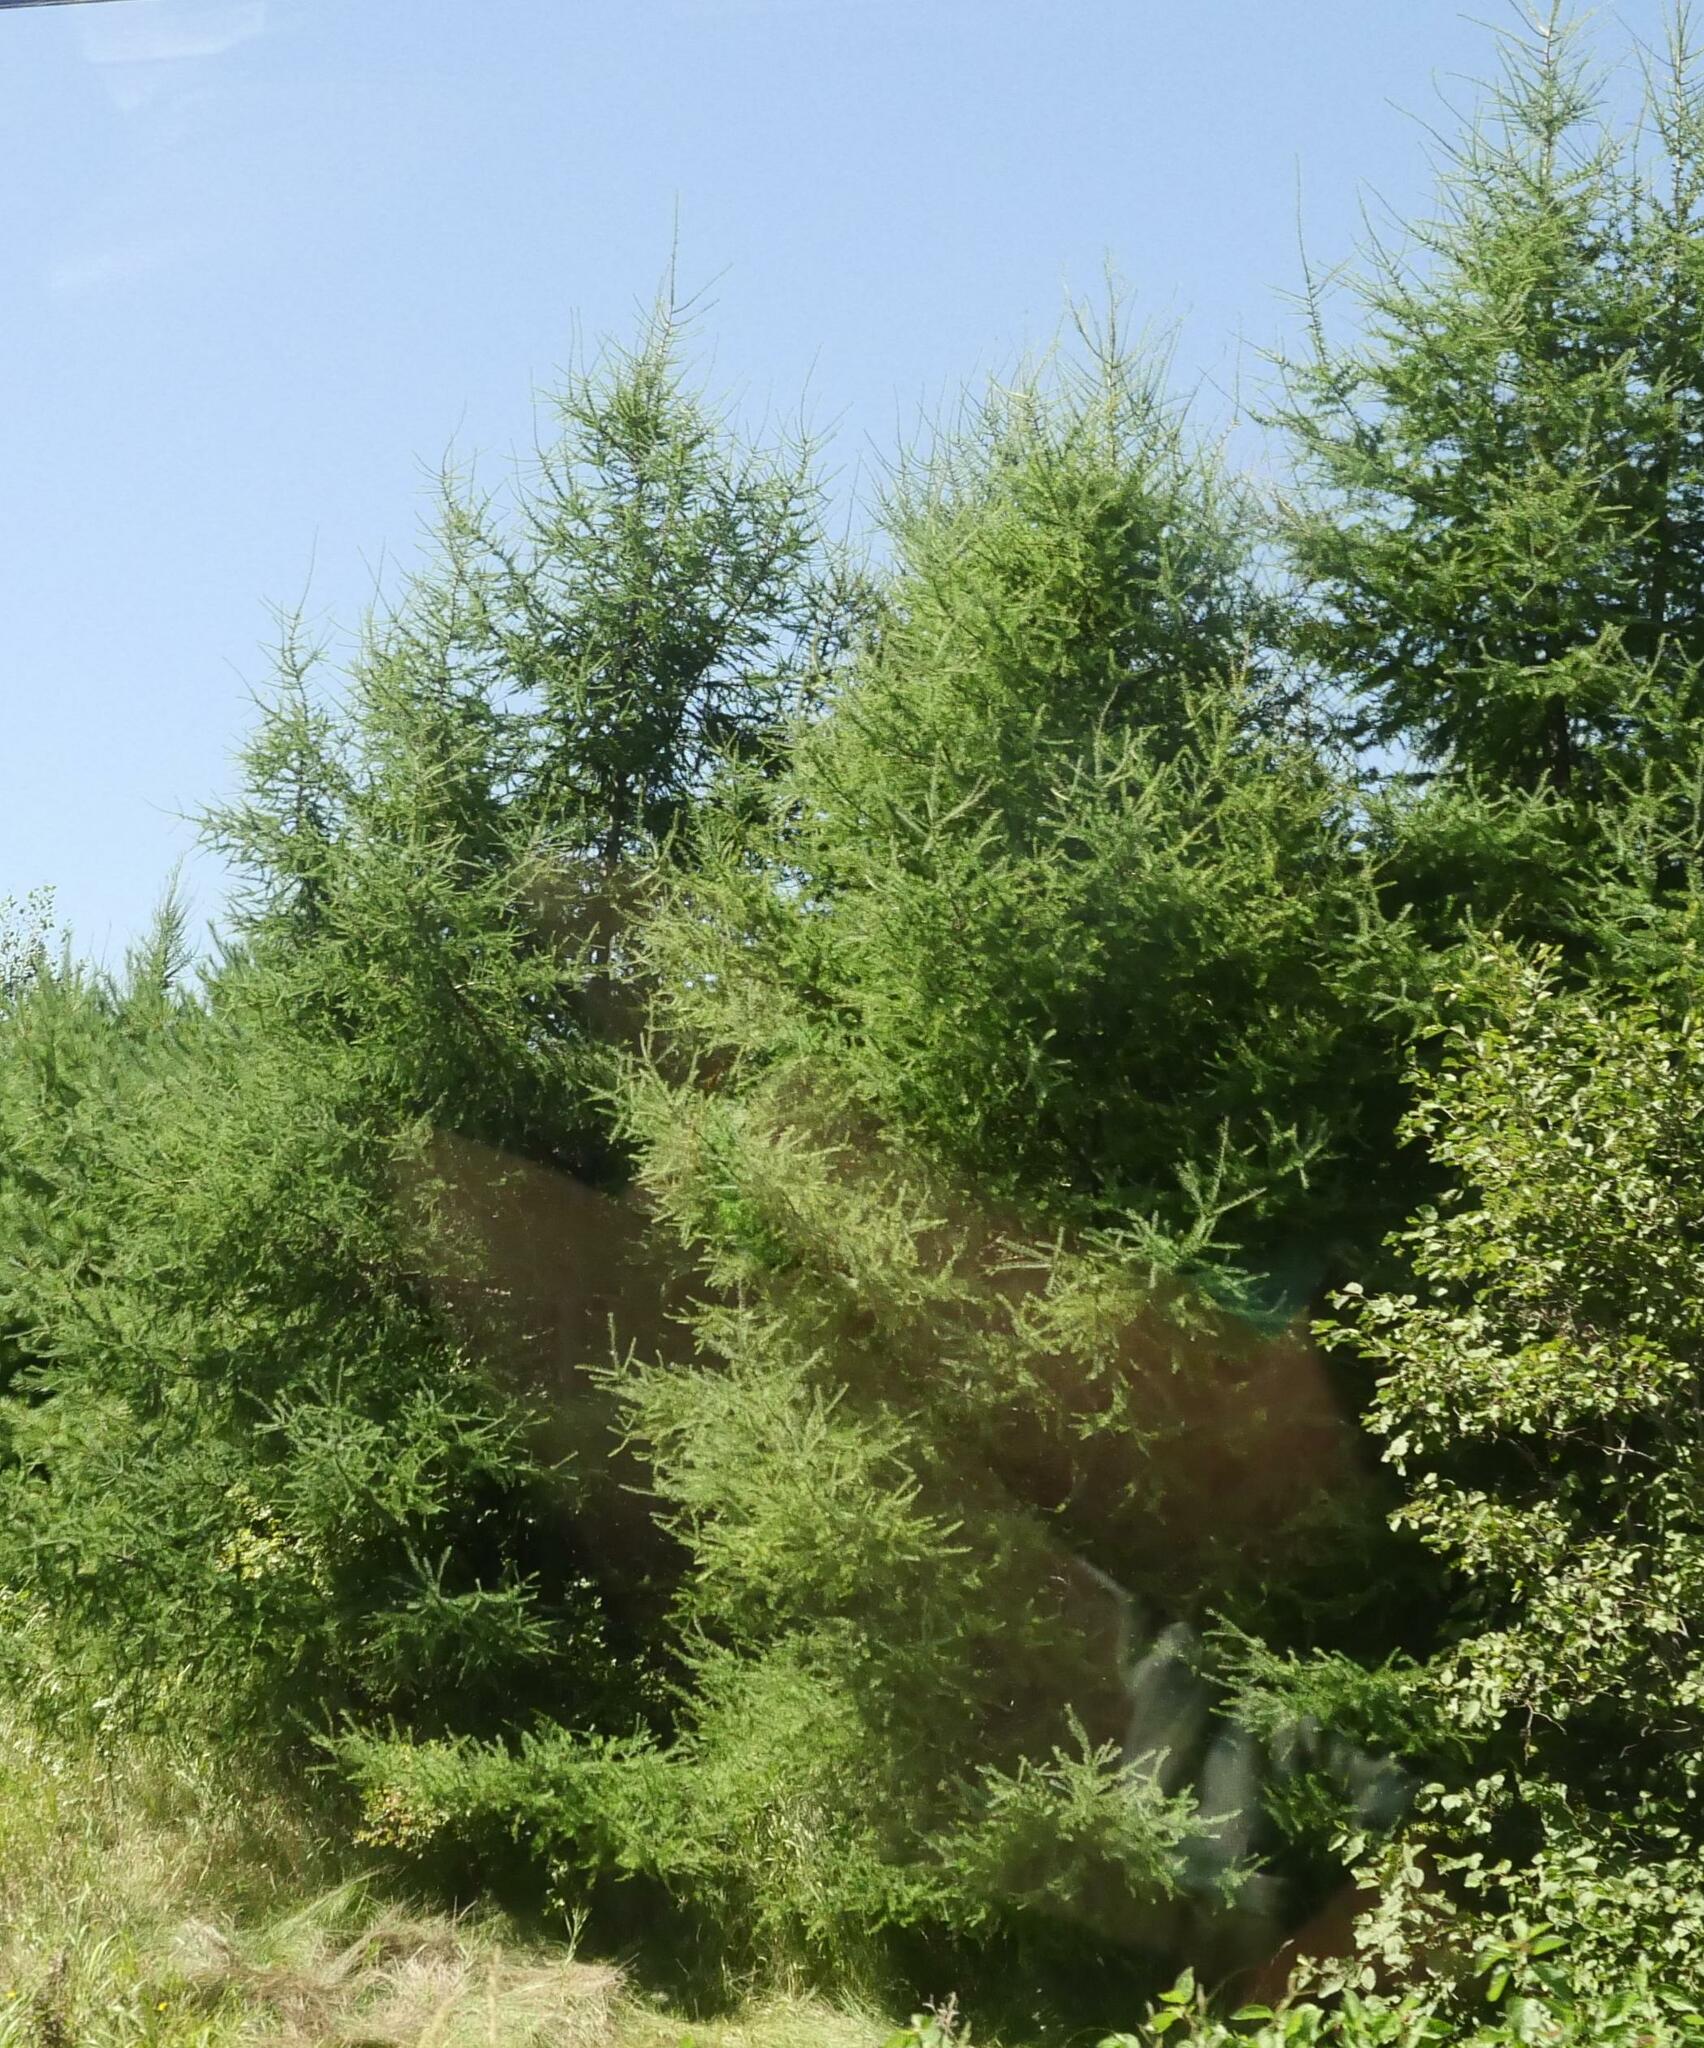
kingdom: Plantae
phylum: Tracheophyta
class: Pinopsida
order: Pinales
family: Pinaceae
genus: Larix
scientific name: Larix laricina
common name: American larch
